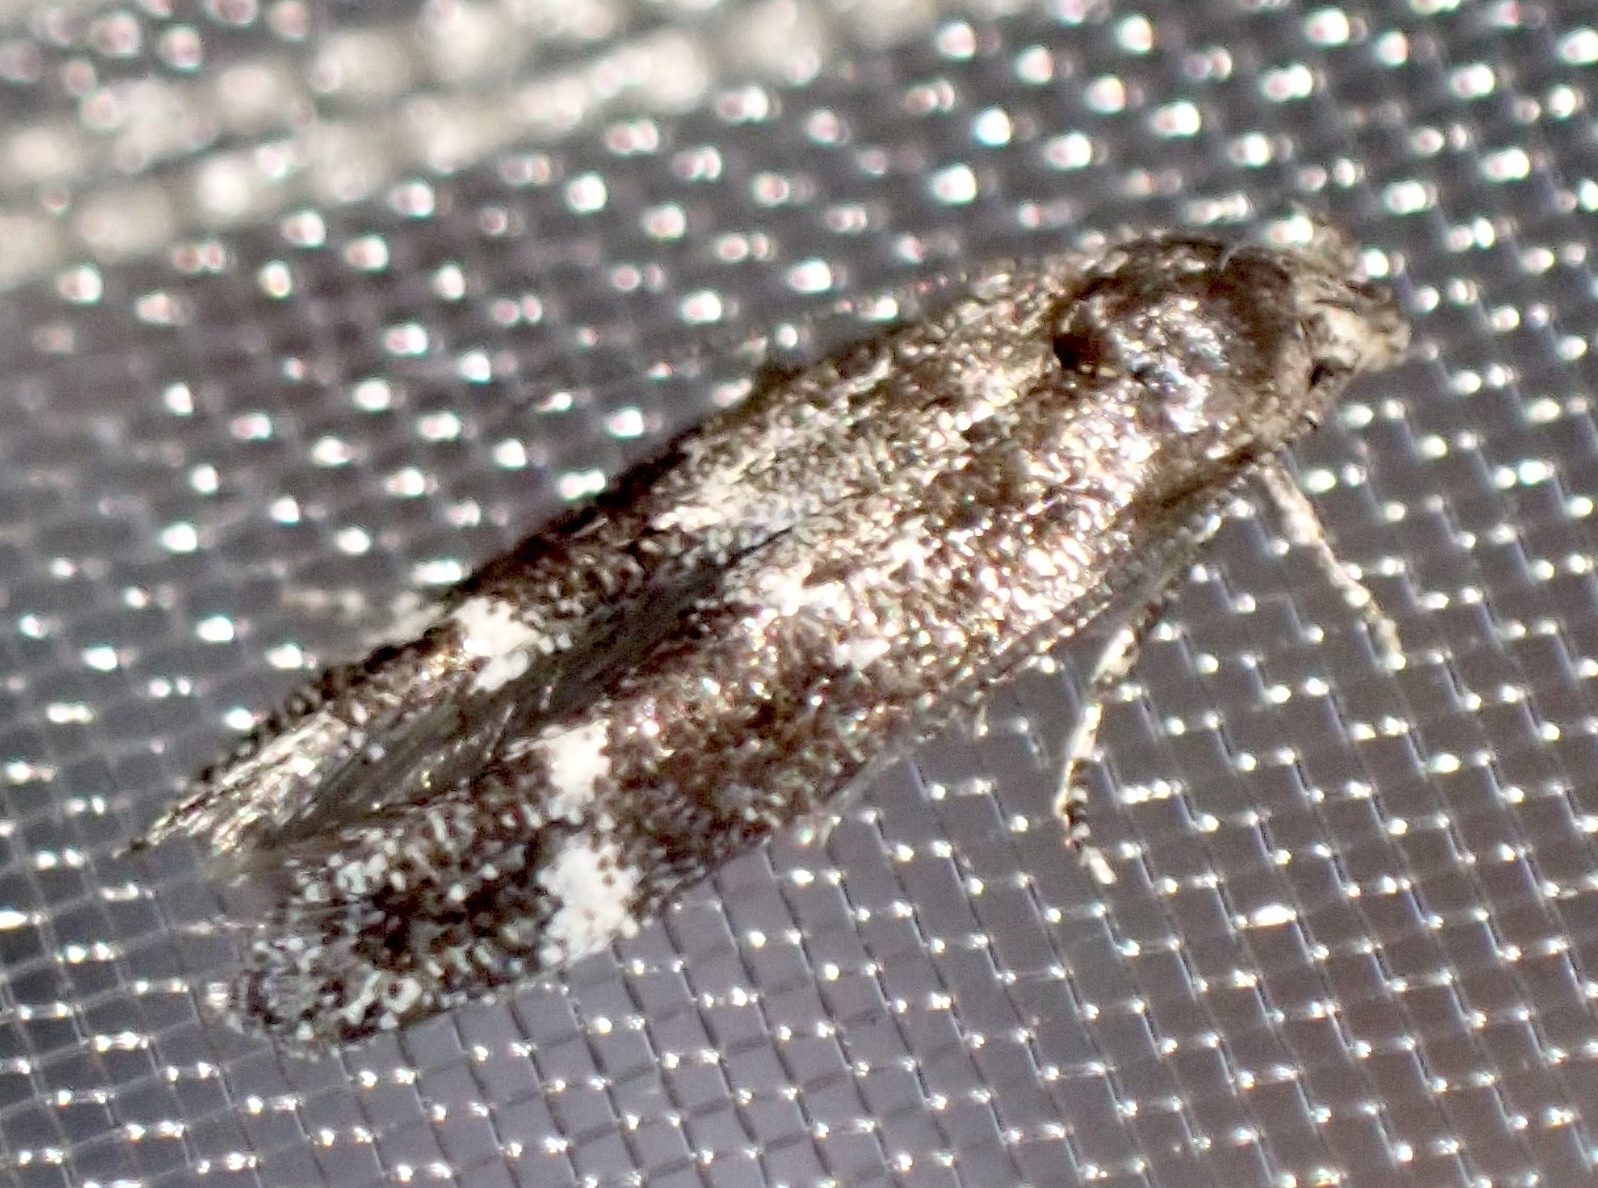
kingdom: Animalia
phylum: Arthropoda
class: Insecta
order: Lepidoptera
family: Momphidae
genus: Mompha
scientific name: Mompha subbistrigella
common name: Garden cosmet
